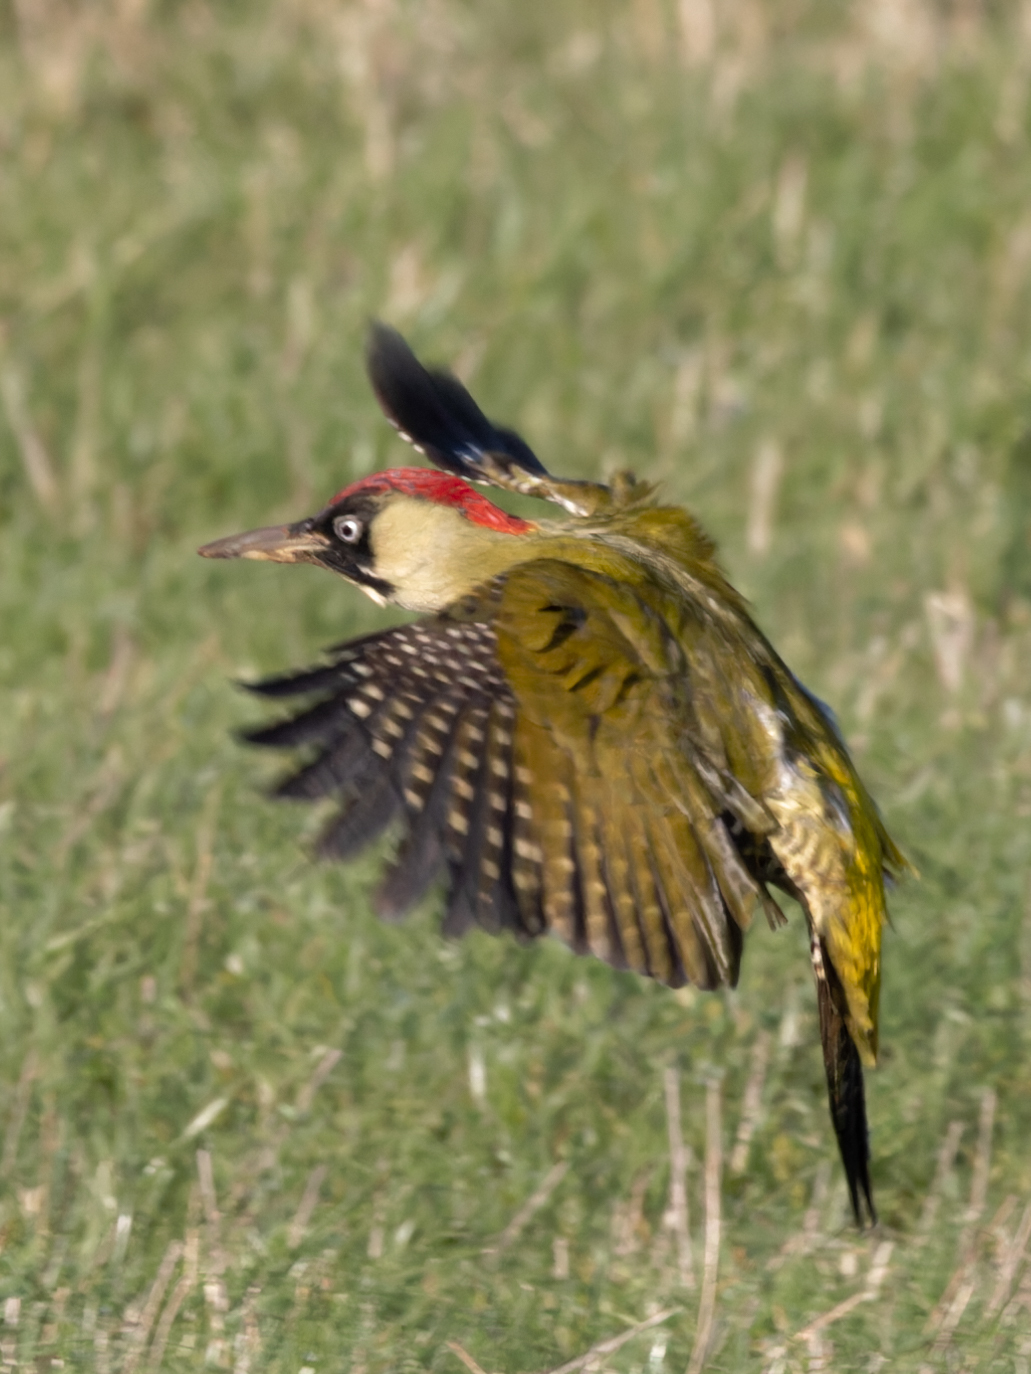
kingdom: Animalia
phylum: Chordata
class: Aves
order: Piciformes
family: Picidae
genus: Picus
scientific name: Picus viridis
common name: European green woodpecker
